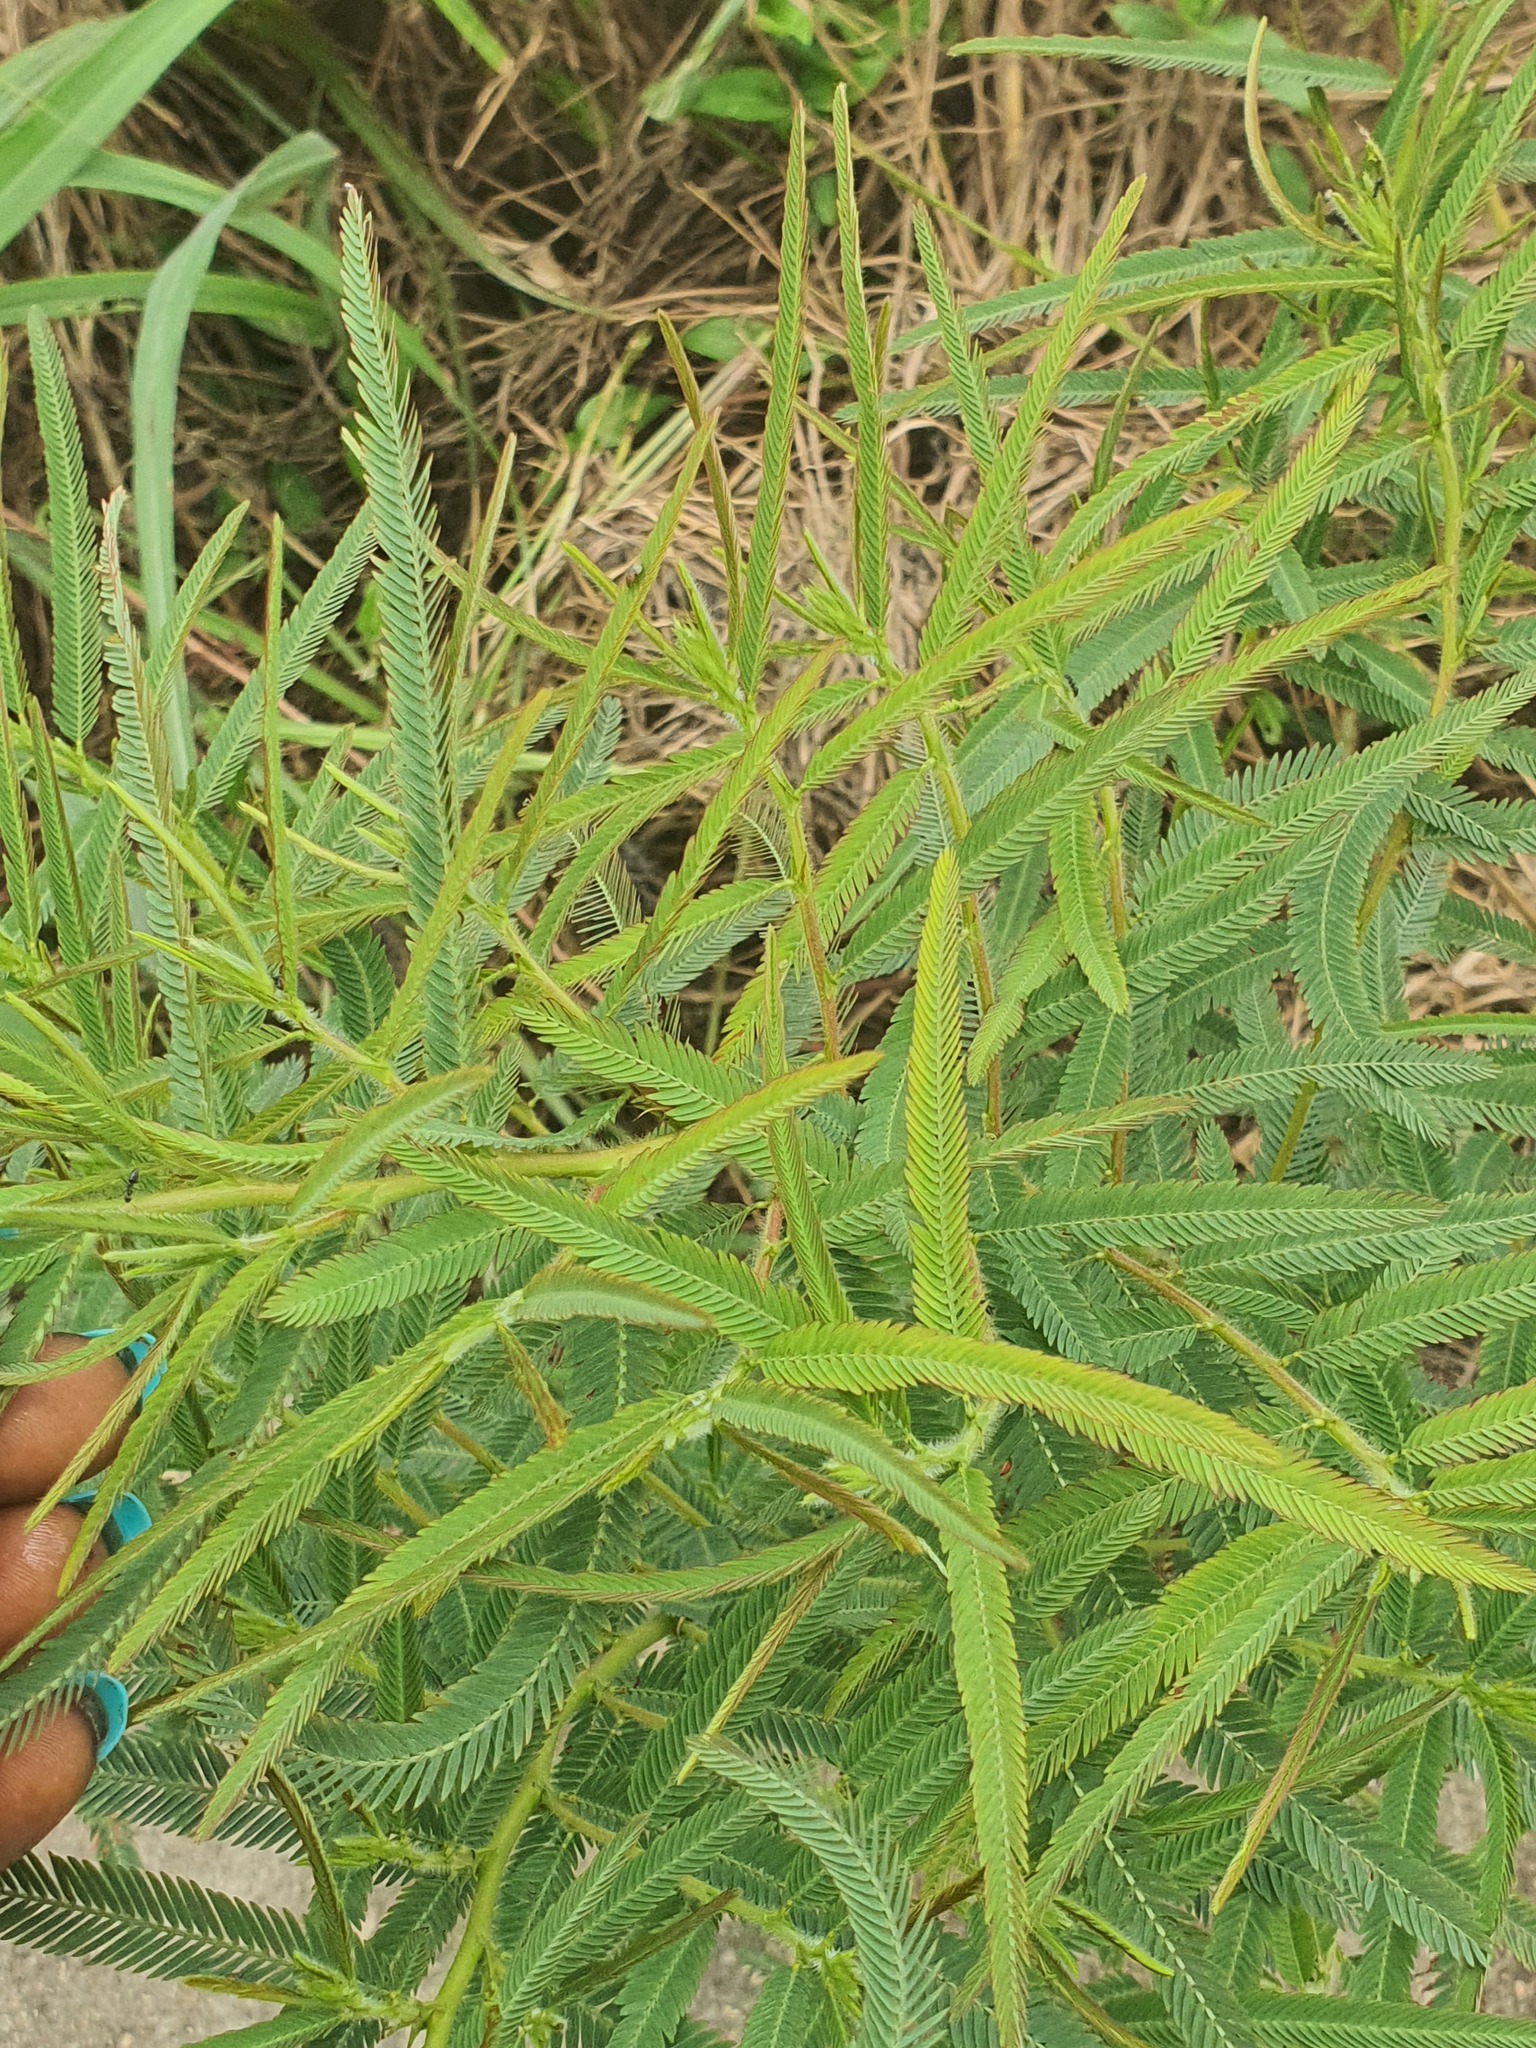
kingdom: Plantae
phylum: Tracheophyta
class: Magnoliopsida
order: Fabales
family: Fabaceae
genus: Chamaecrista
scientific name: Chamaecrista mimosoides
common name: Fish-bone cassia
